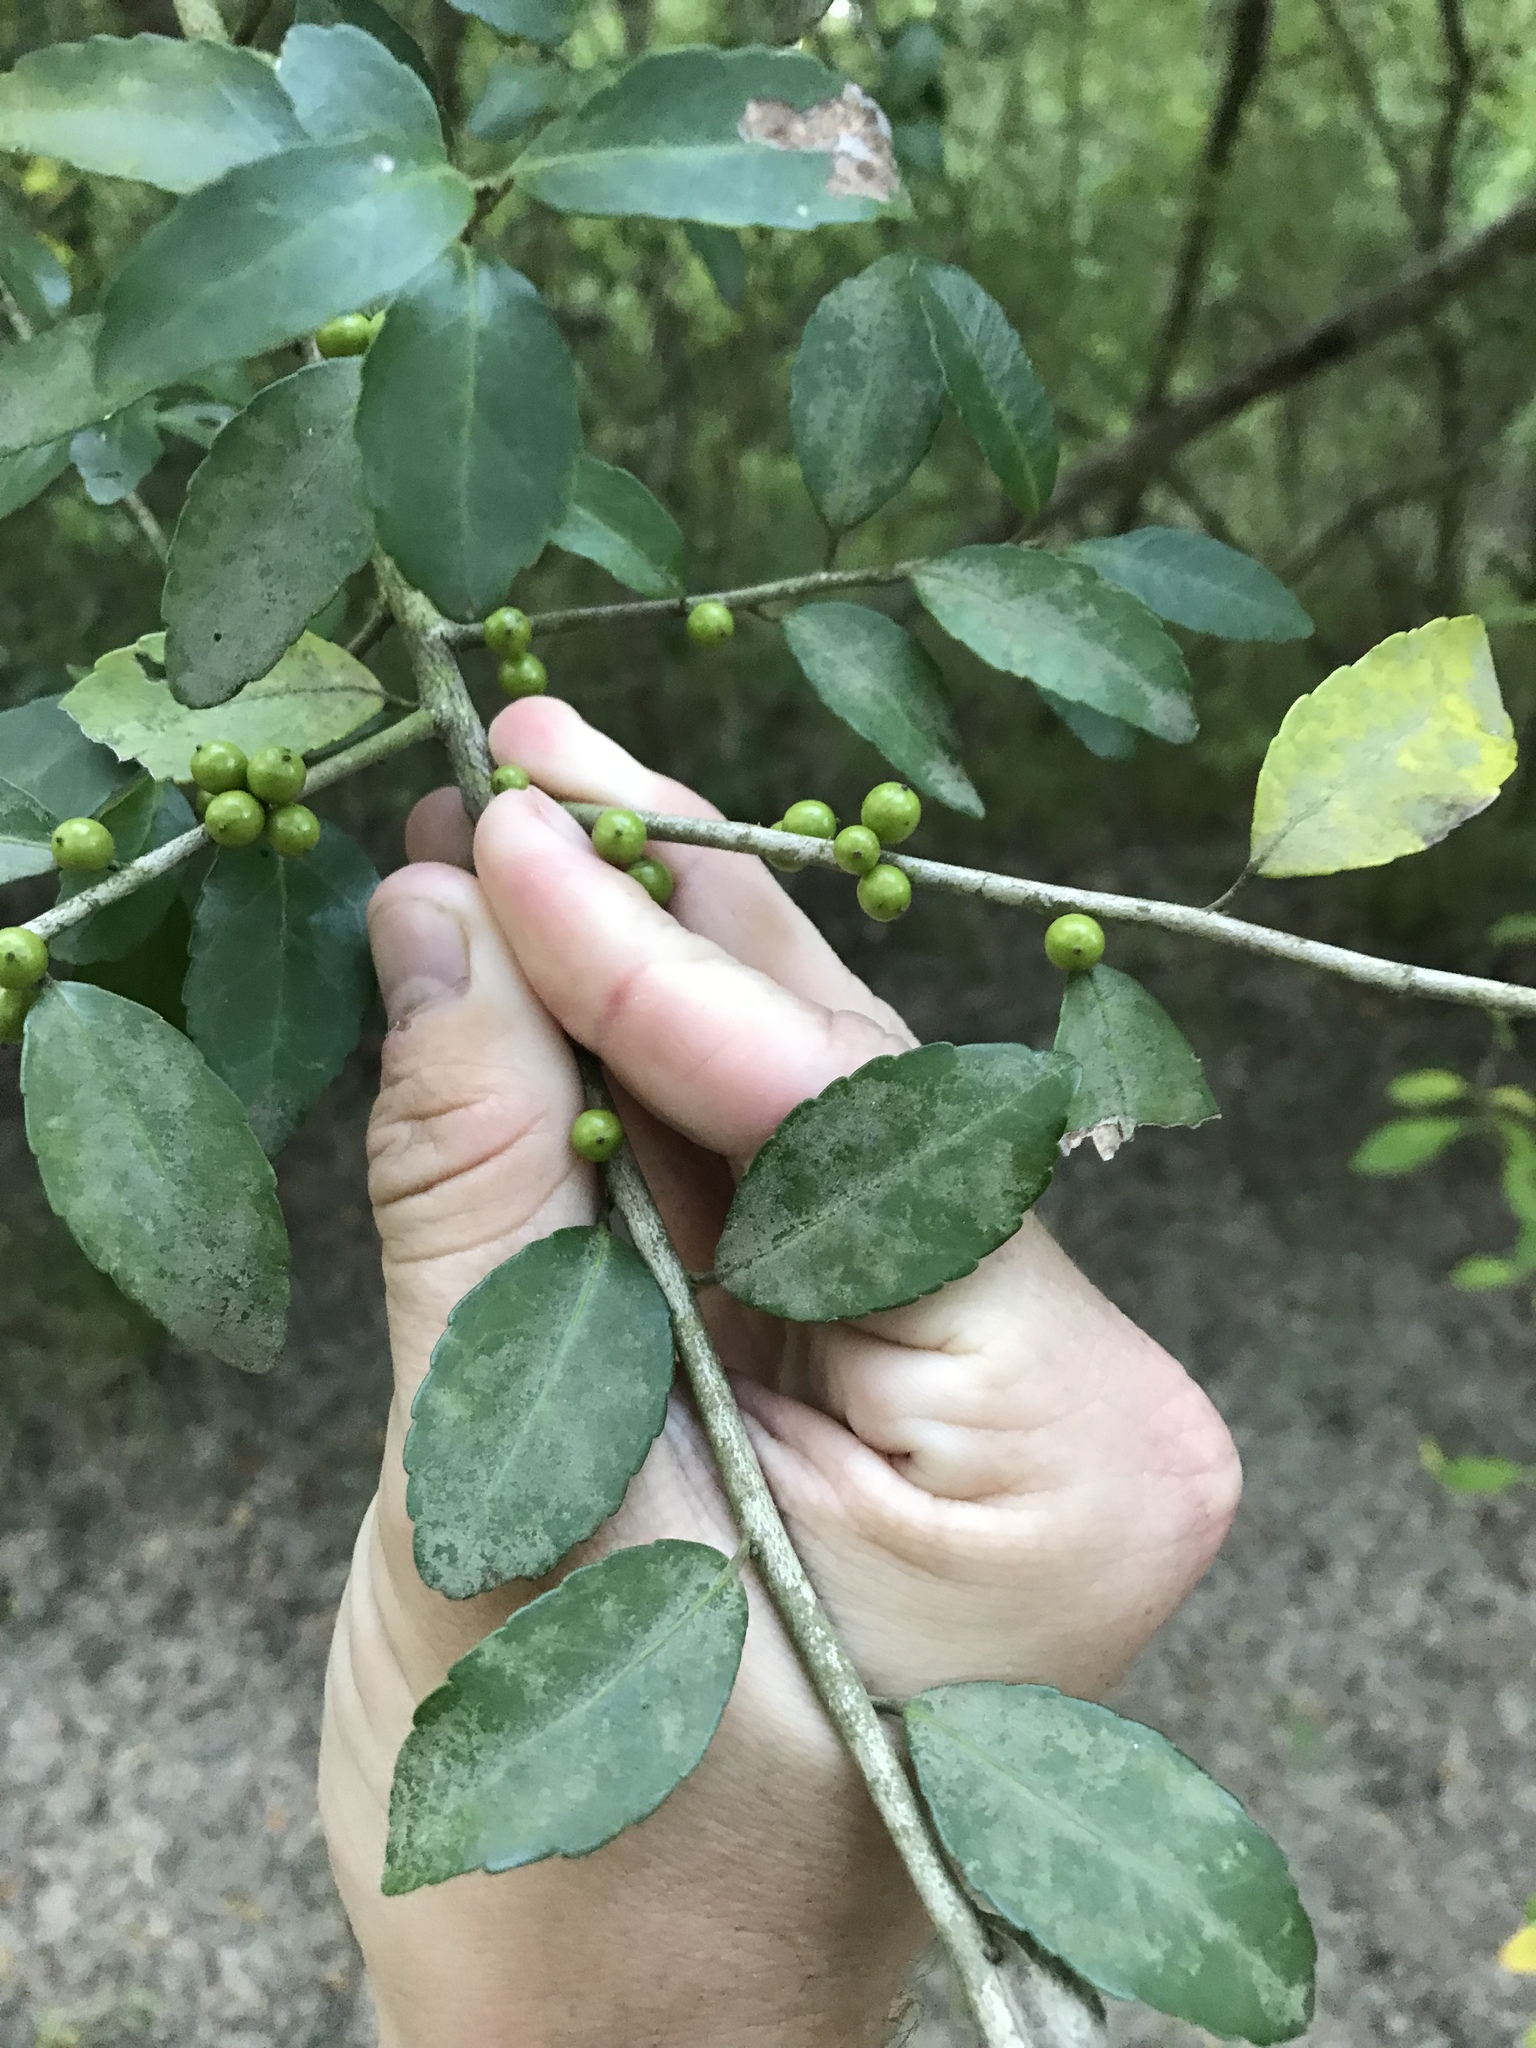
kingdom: Plantae
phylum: Tracheophyta
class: Magnoliopsida
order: Aquifoliales
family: Aquifoliaceae
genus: Ilex
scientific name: Ilex vomitoria
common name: Yaupon holly
